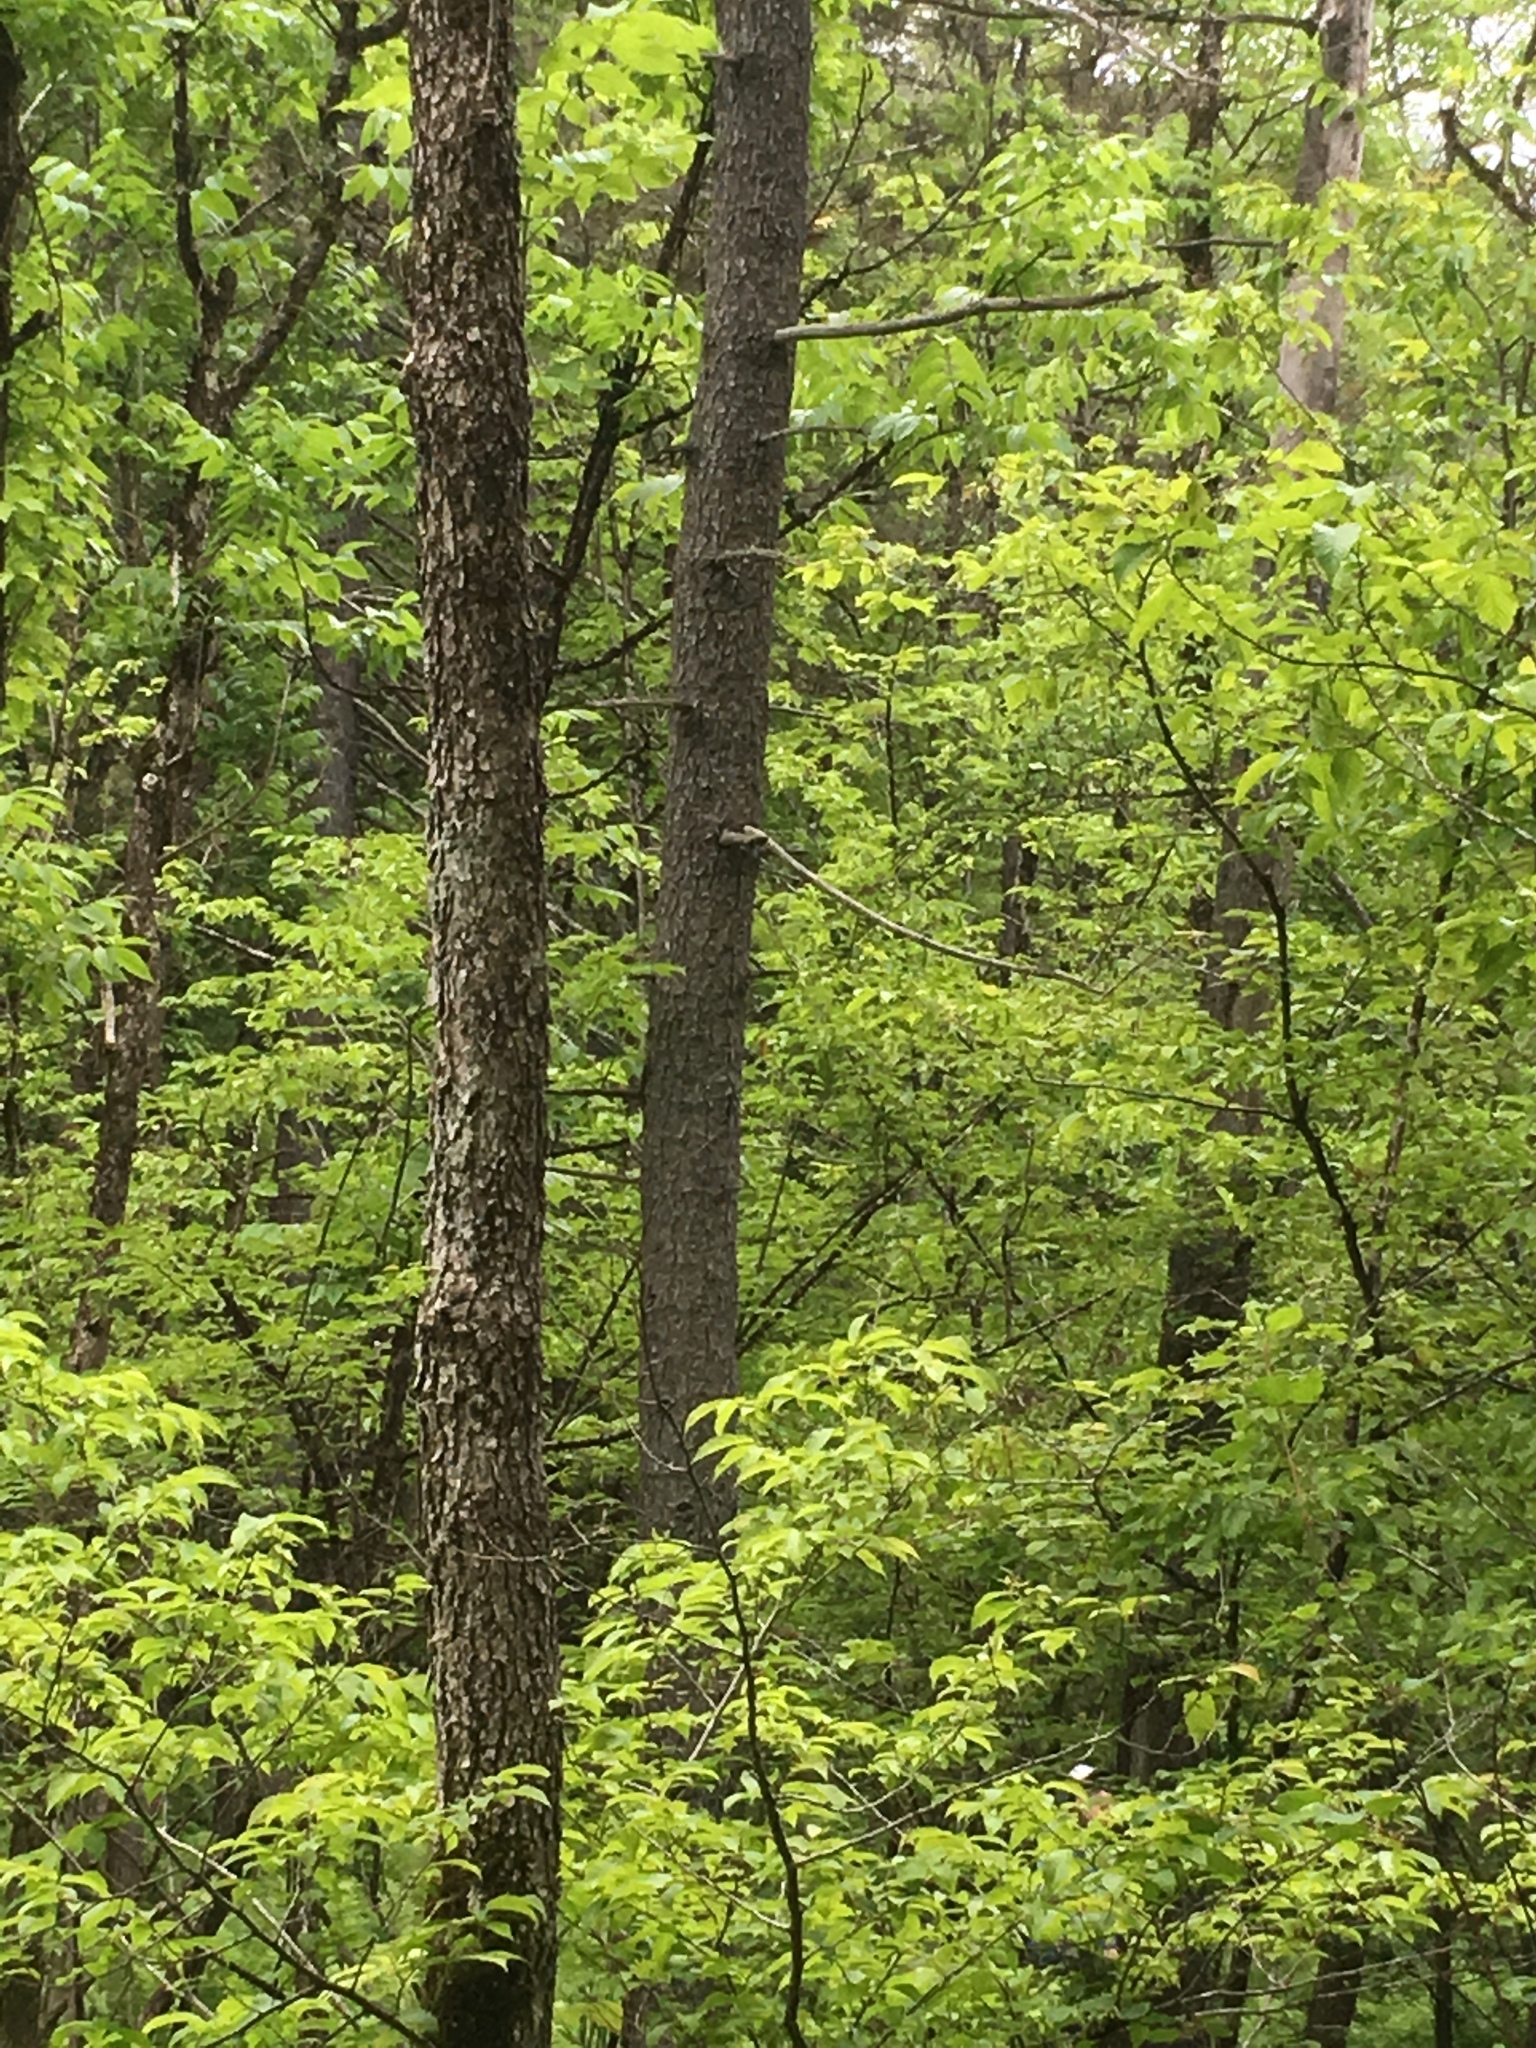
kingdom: Plantae
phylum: Tracheophyta
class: Pinopsida
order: Pinales
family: Pinaceae
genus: Pinus
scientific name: Pinus strobus
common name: Weymouth pine
